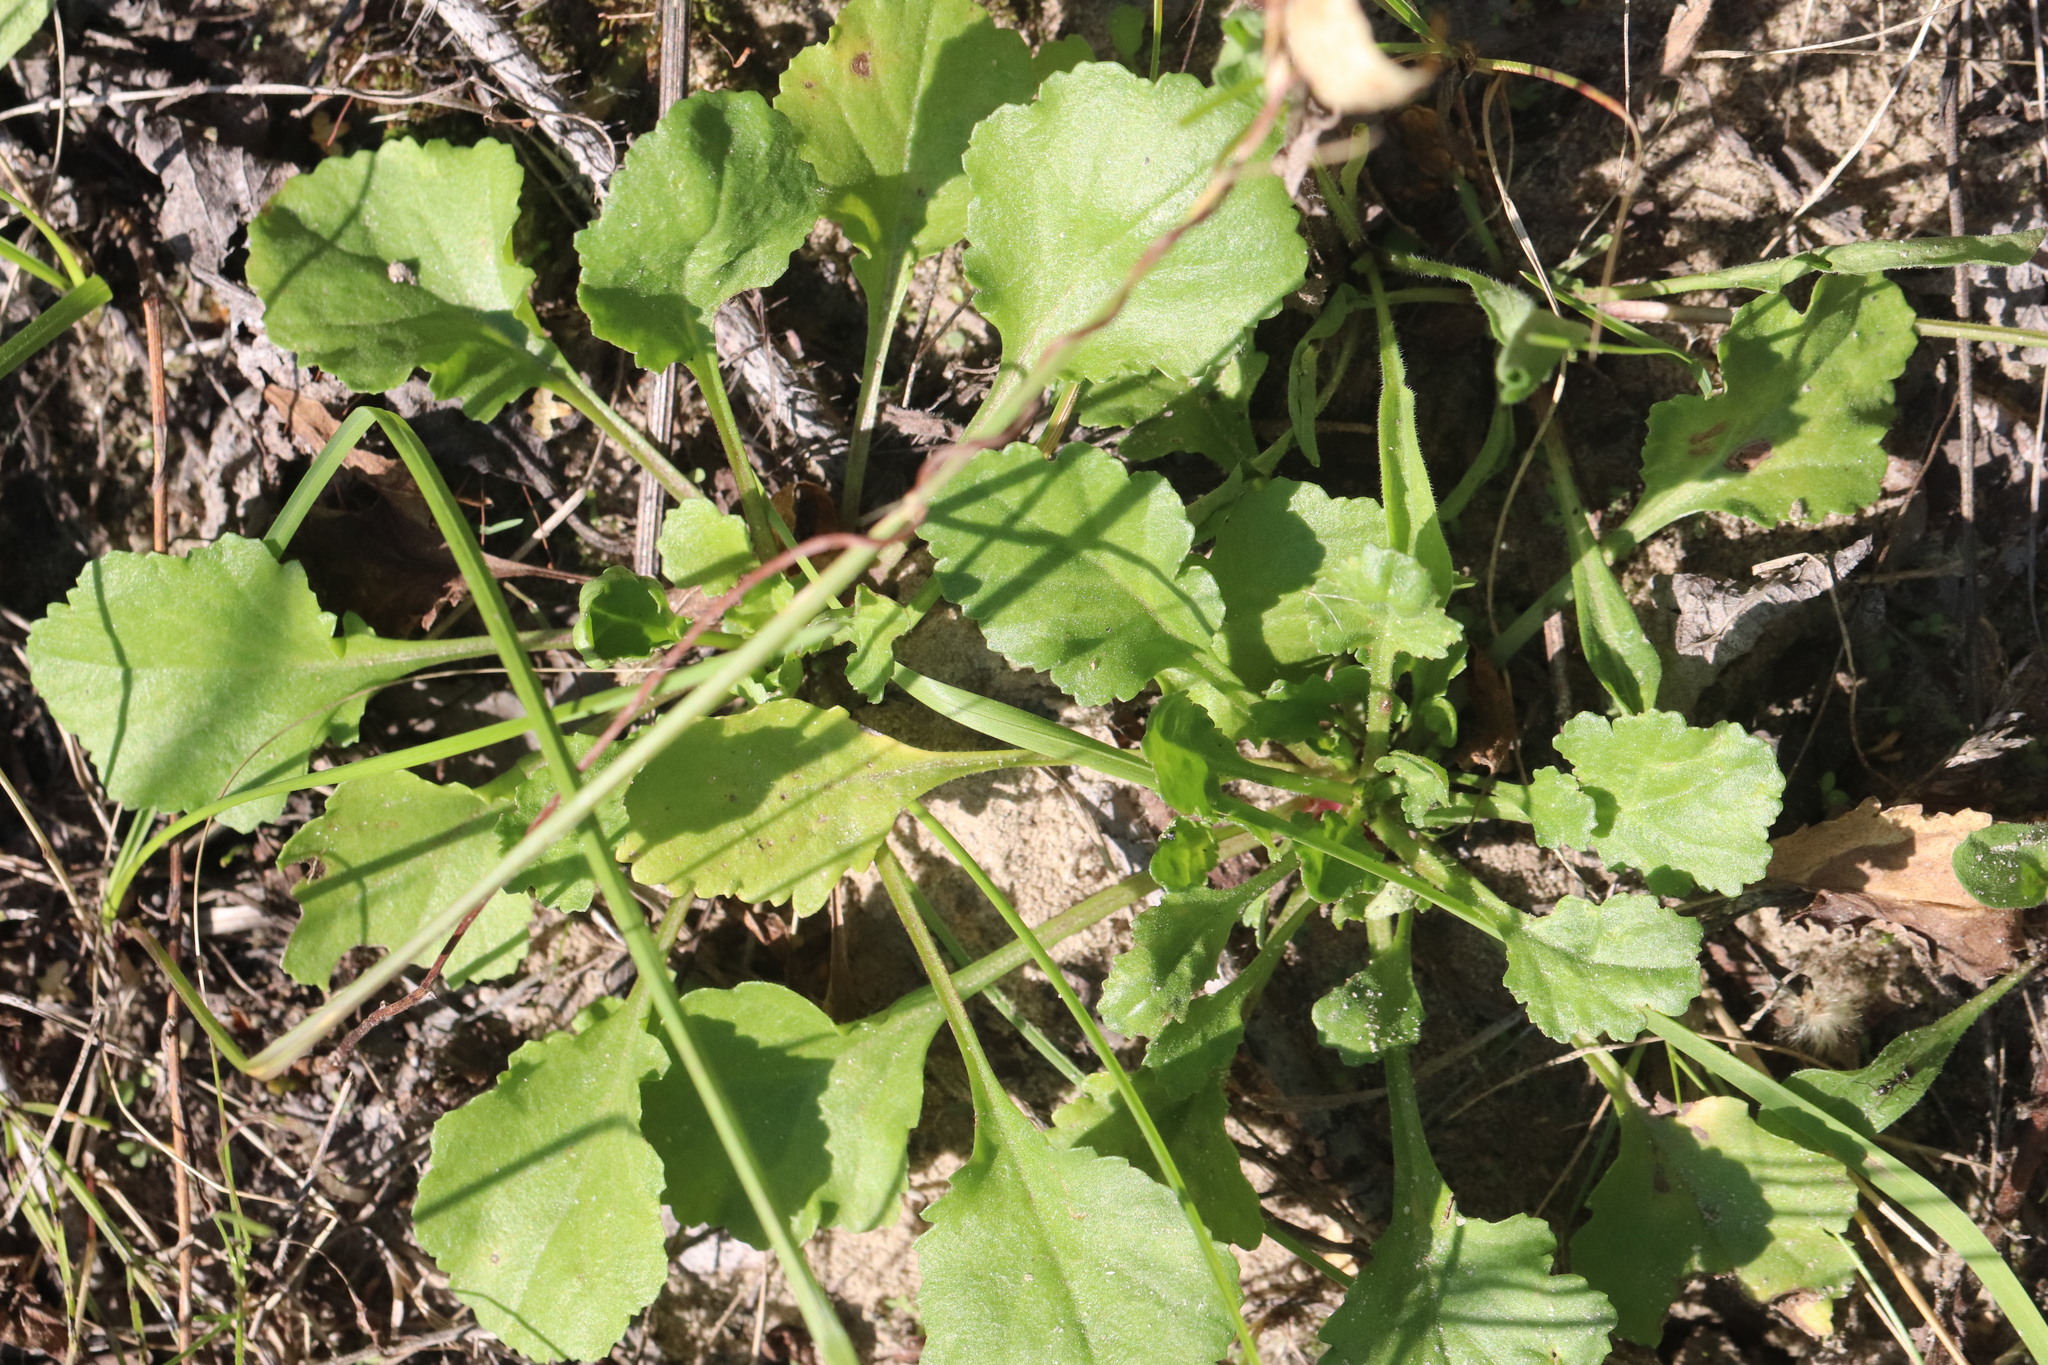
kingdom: Plantae
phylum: Tracheophyta
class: Magnoliopsida
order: Asterales
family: Asteraceae
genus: Leucanthemum
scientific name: Leucanthemum ircutianum
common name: Daisy
